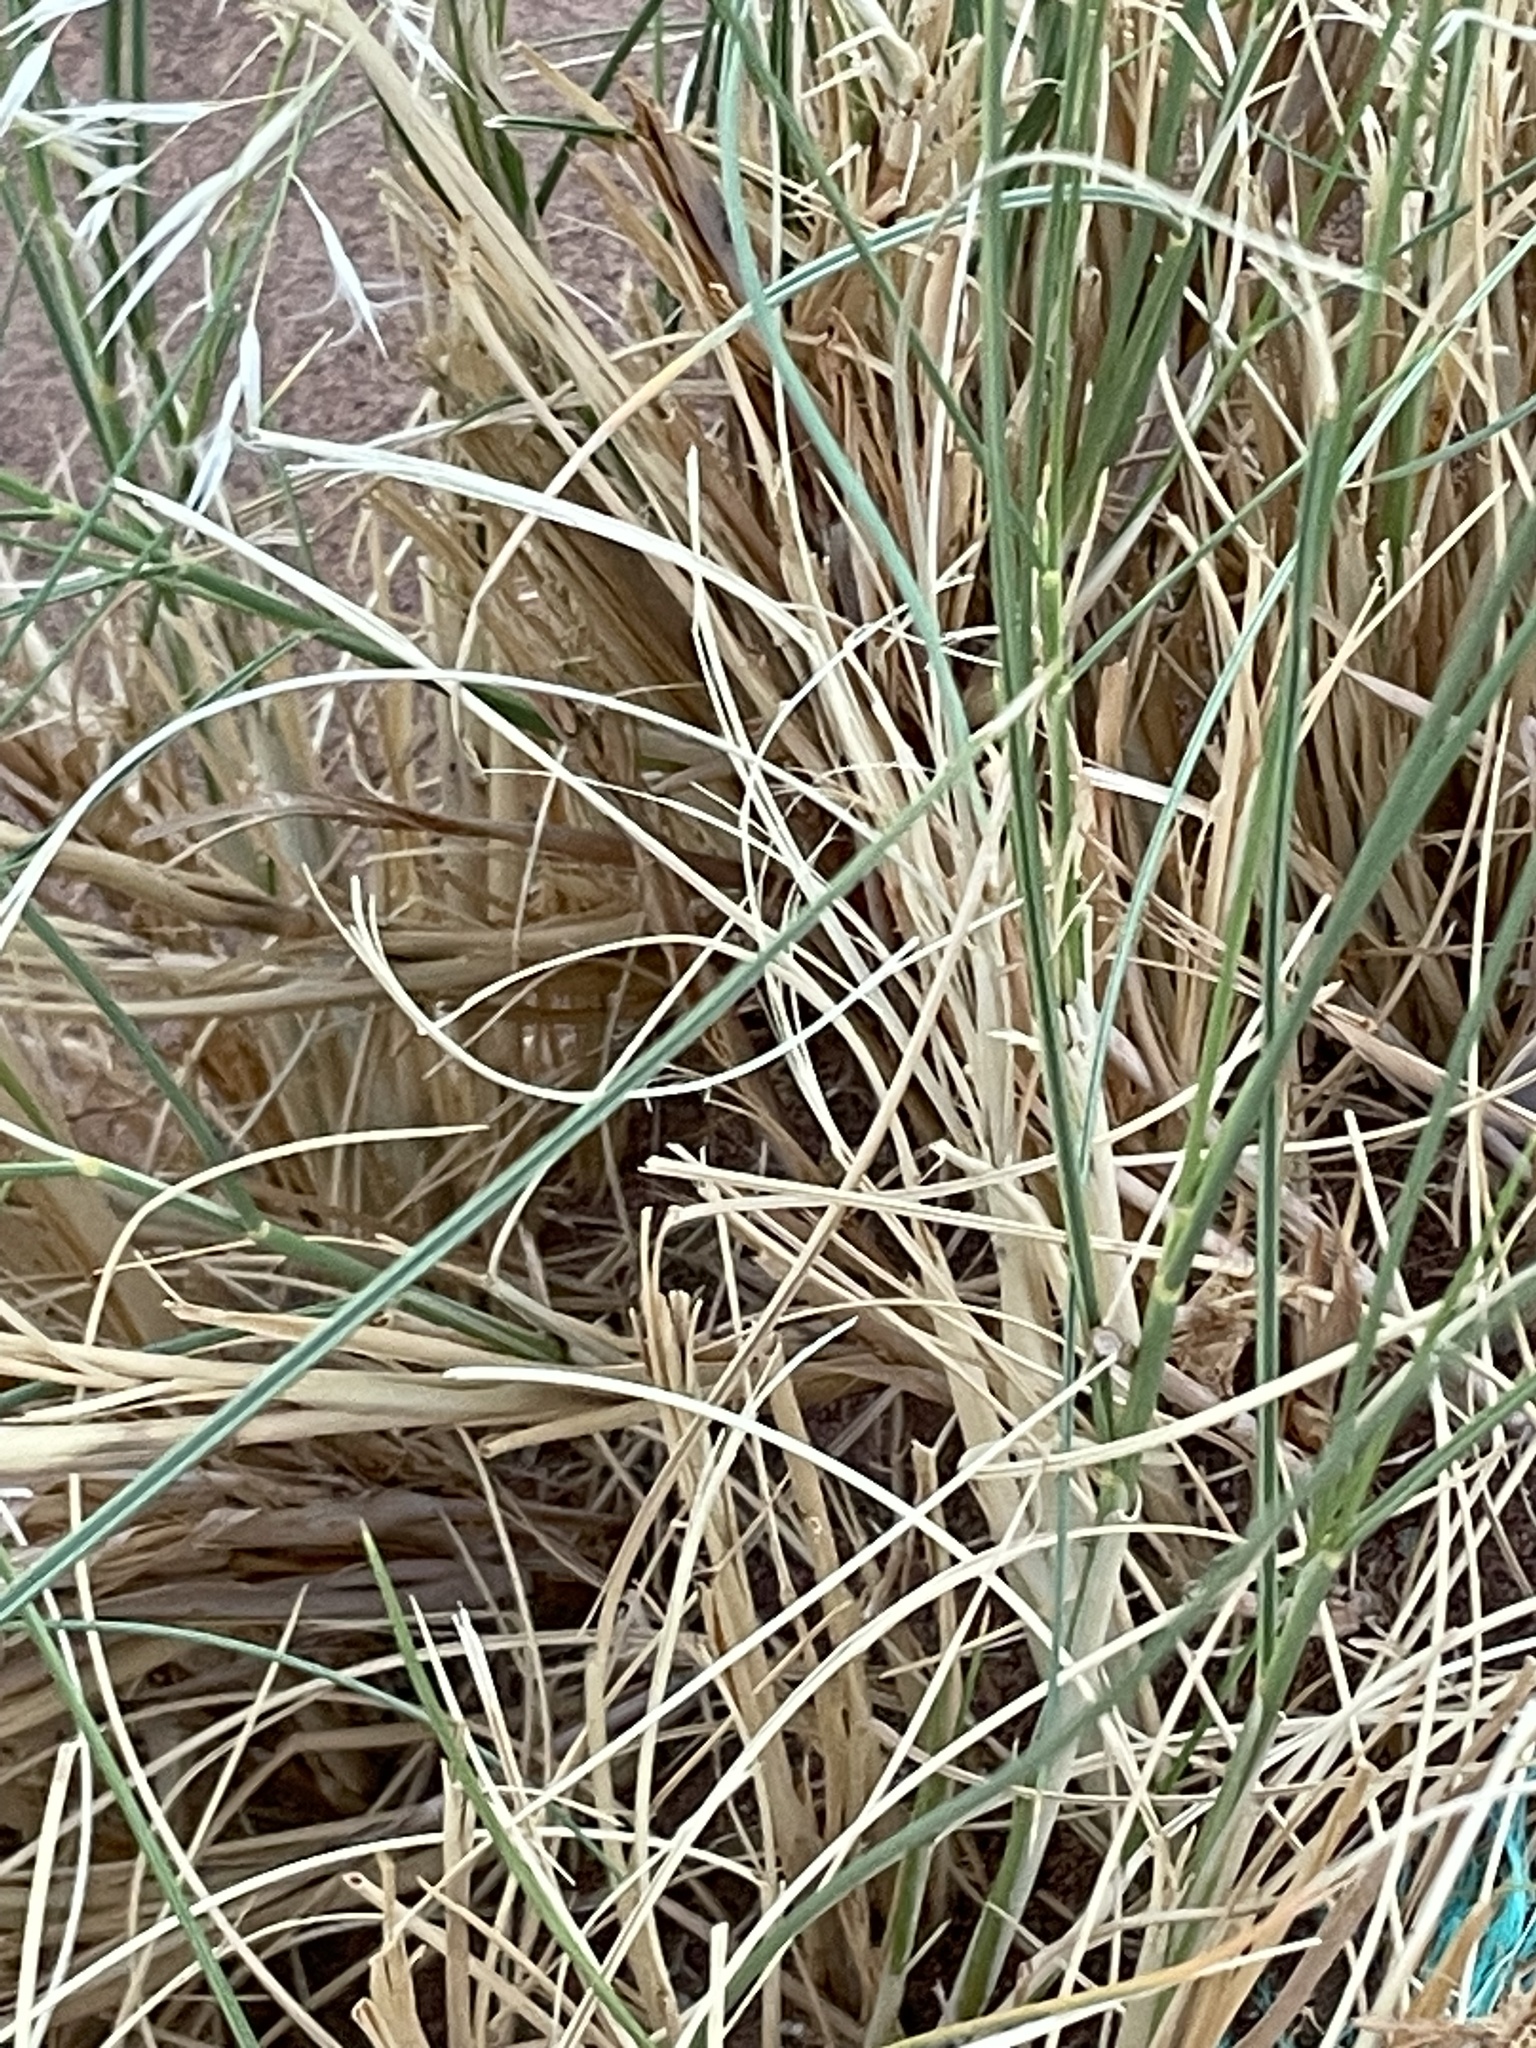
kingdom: Plantae
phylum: Tracheophyta
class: Liliopsida
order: Poales
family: Poaceae
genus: Stipagrostis
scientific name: Stipagrostis pungens
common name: Three-awn grass
